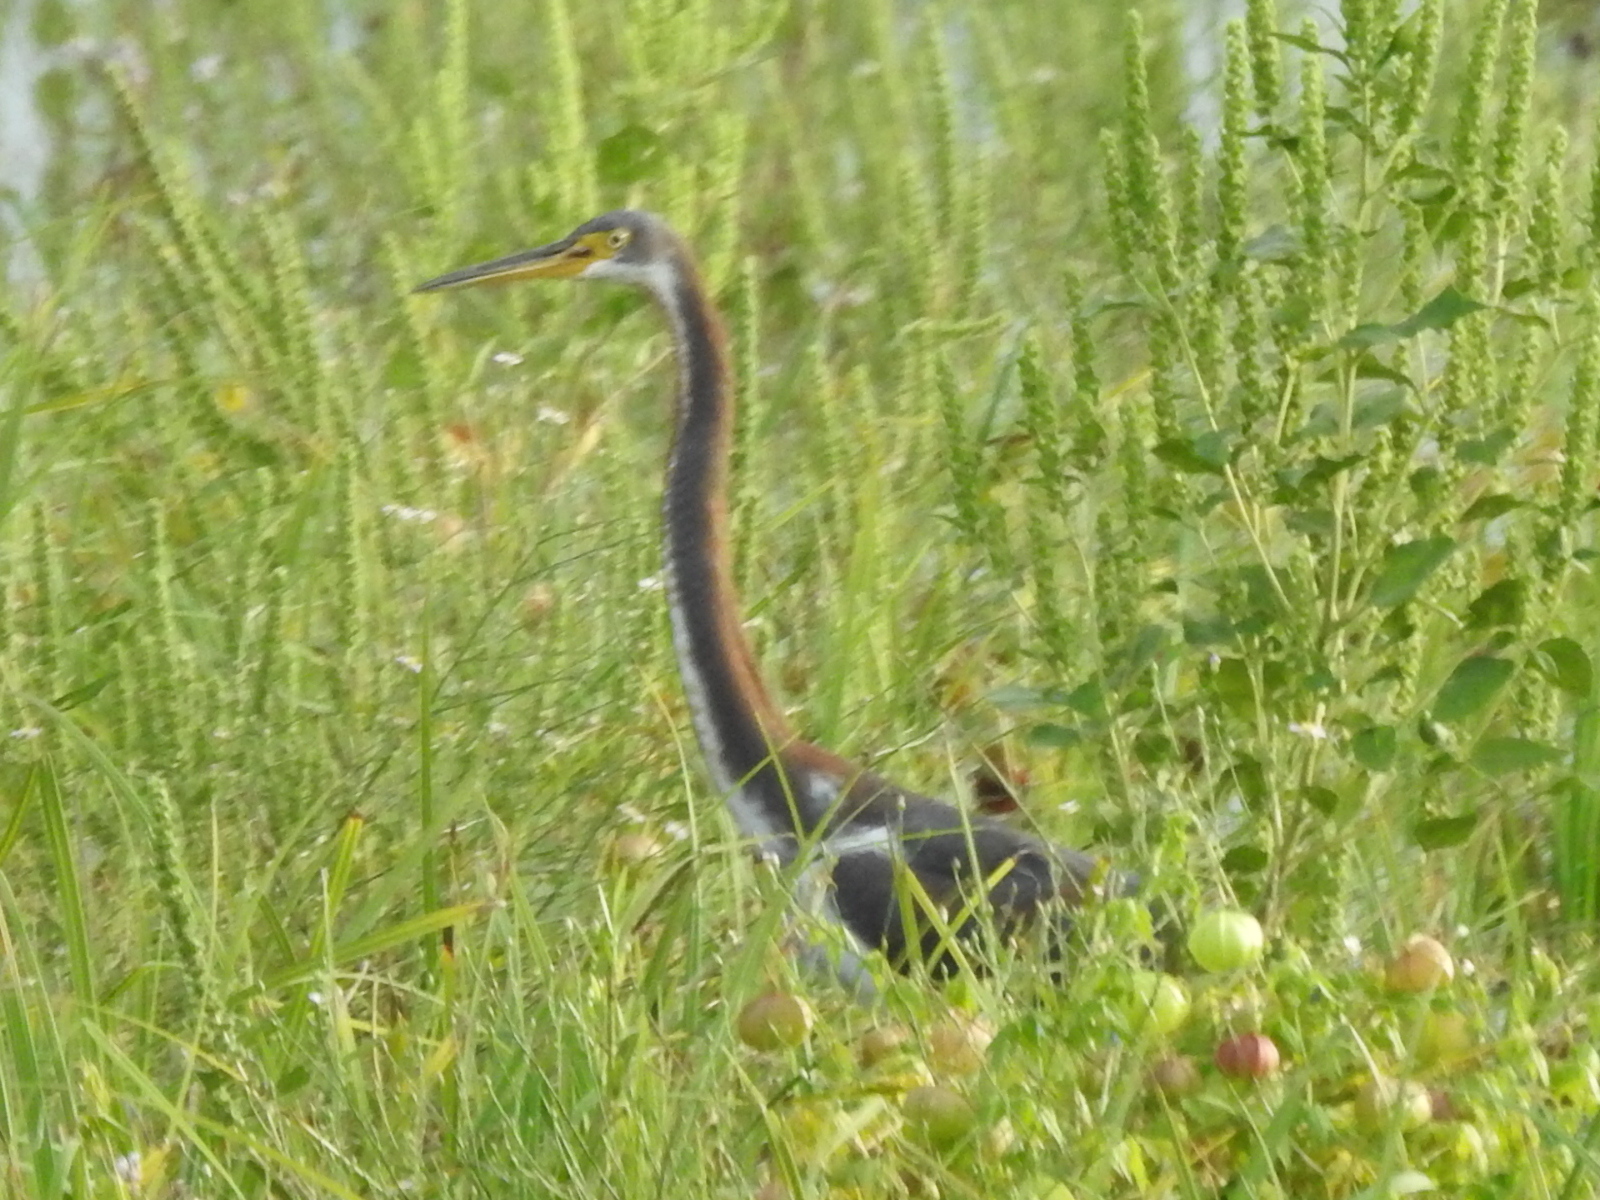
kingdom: Animalia
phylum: Chordata
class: Aves
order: Pelecaniformes
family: Ardeidae
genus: Egretta
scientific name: Egretta tricolor
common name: Tricolored heron
